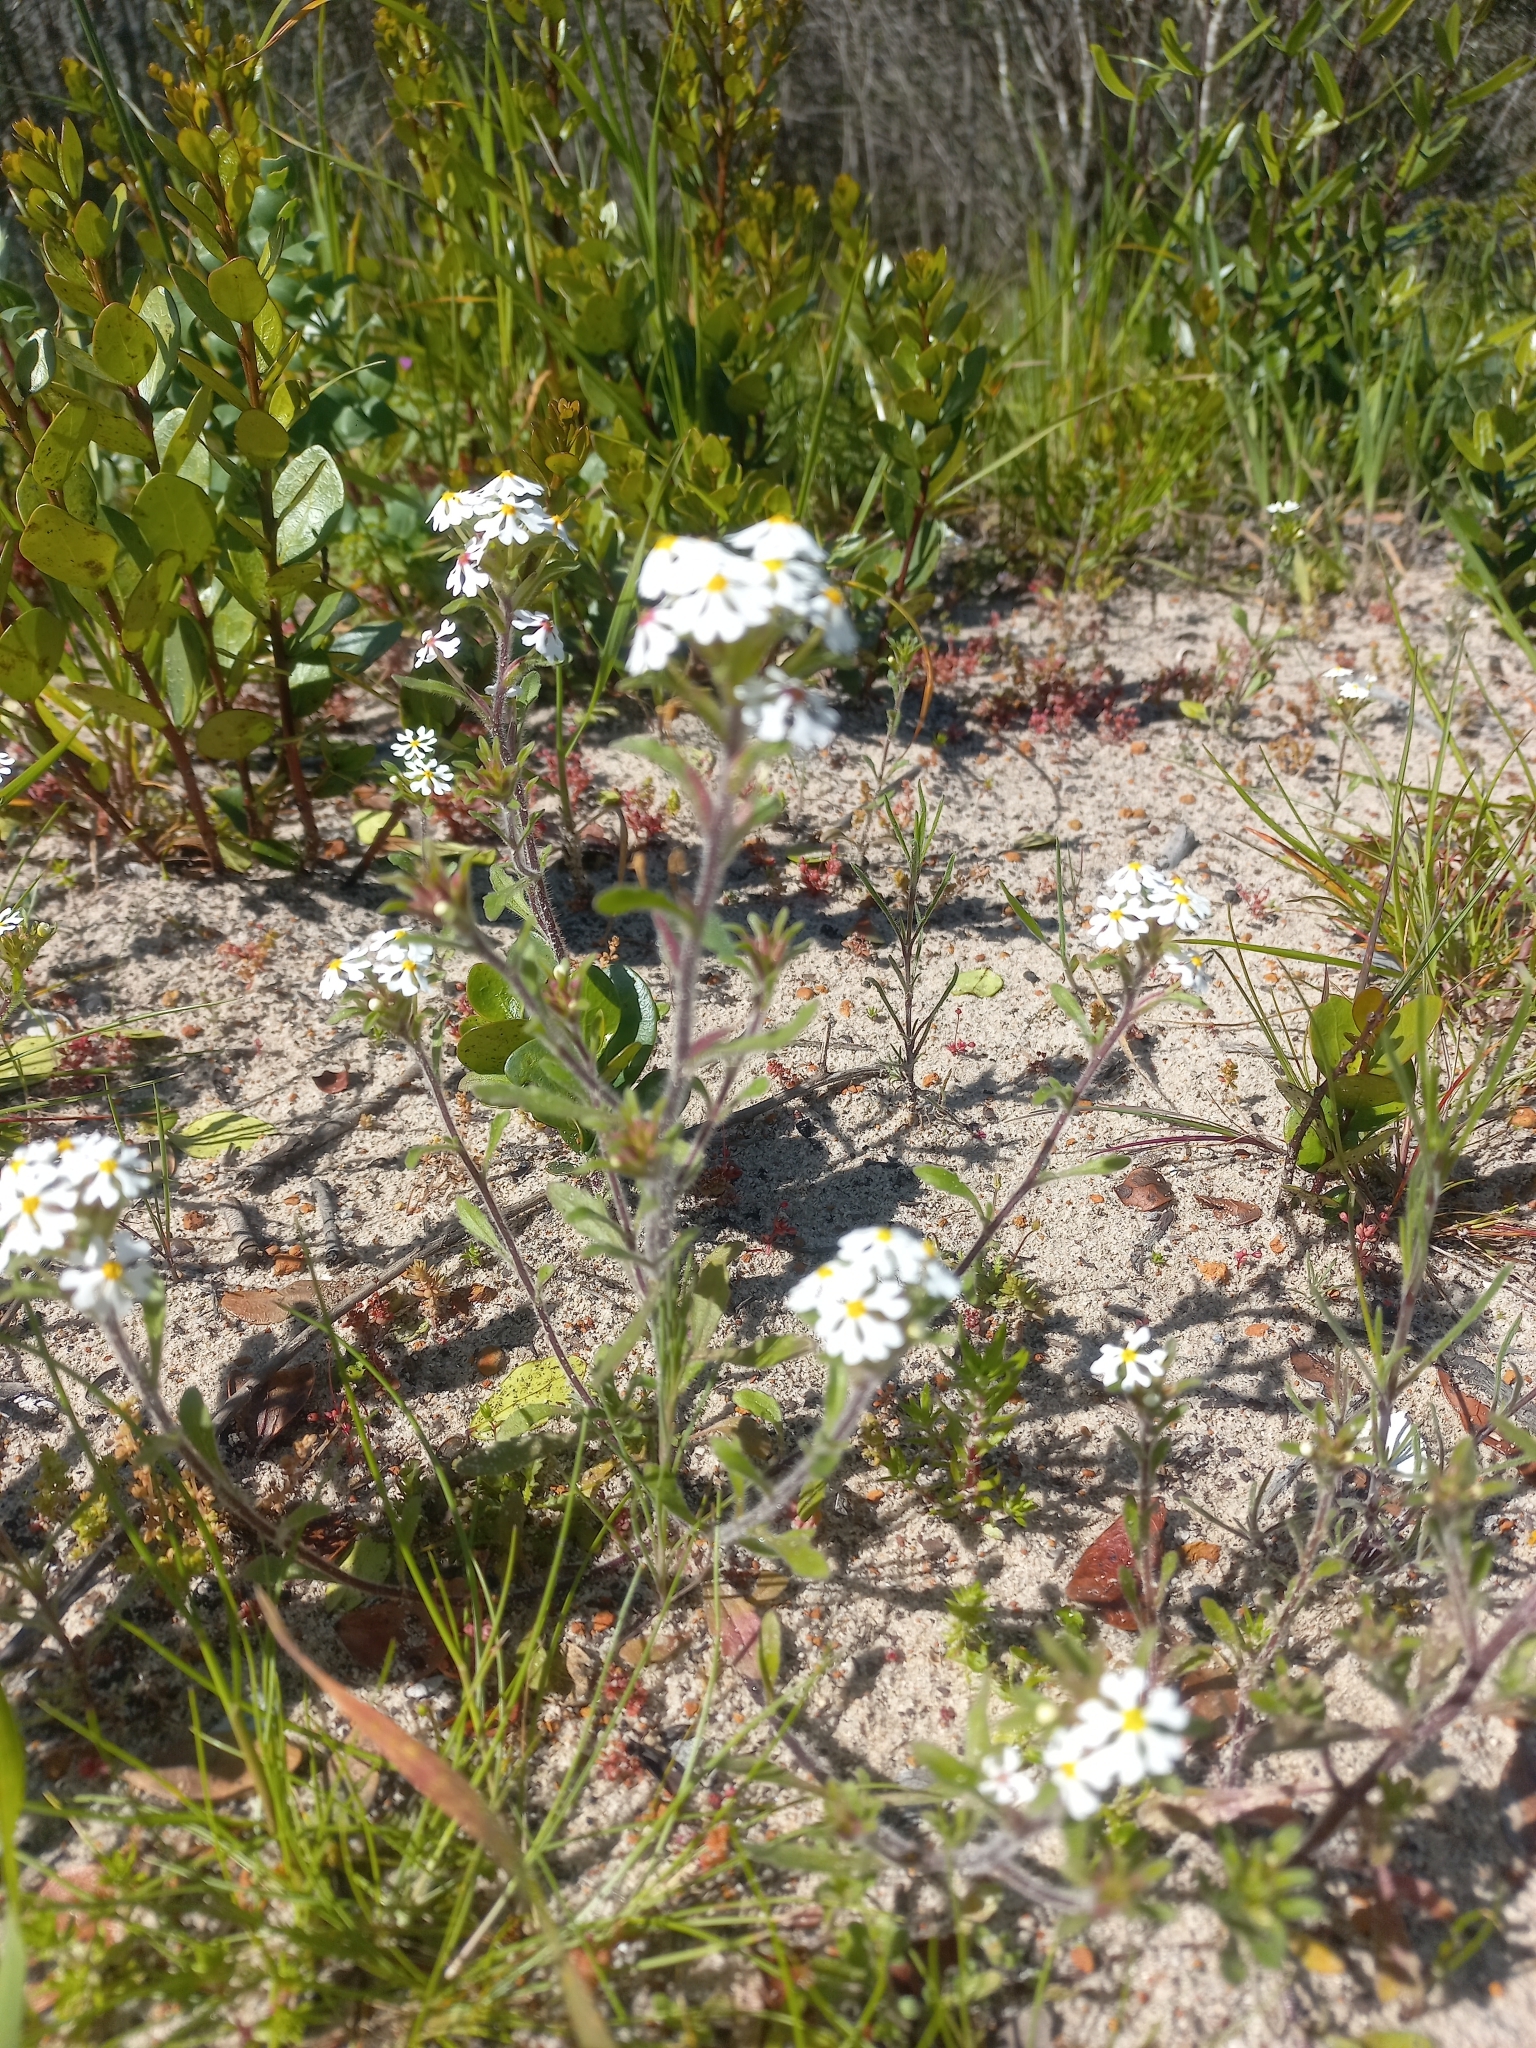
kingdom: Plantae
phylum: Tracheophyta
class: Magnoliopsida
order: Lamiales
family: Scrophulariaceae
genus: Zaluzianskya
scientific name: Zaluzianskya villosa
